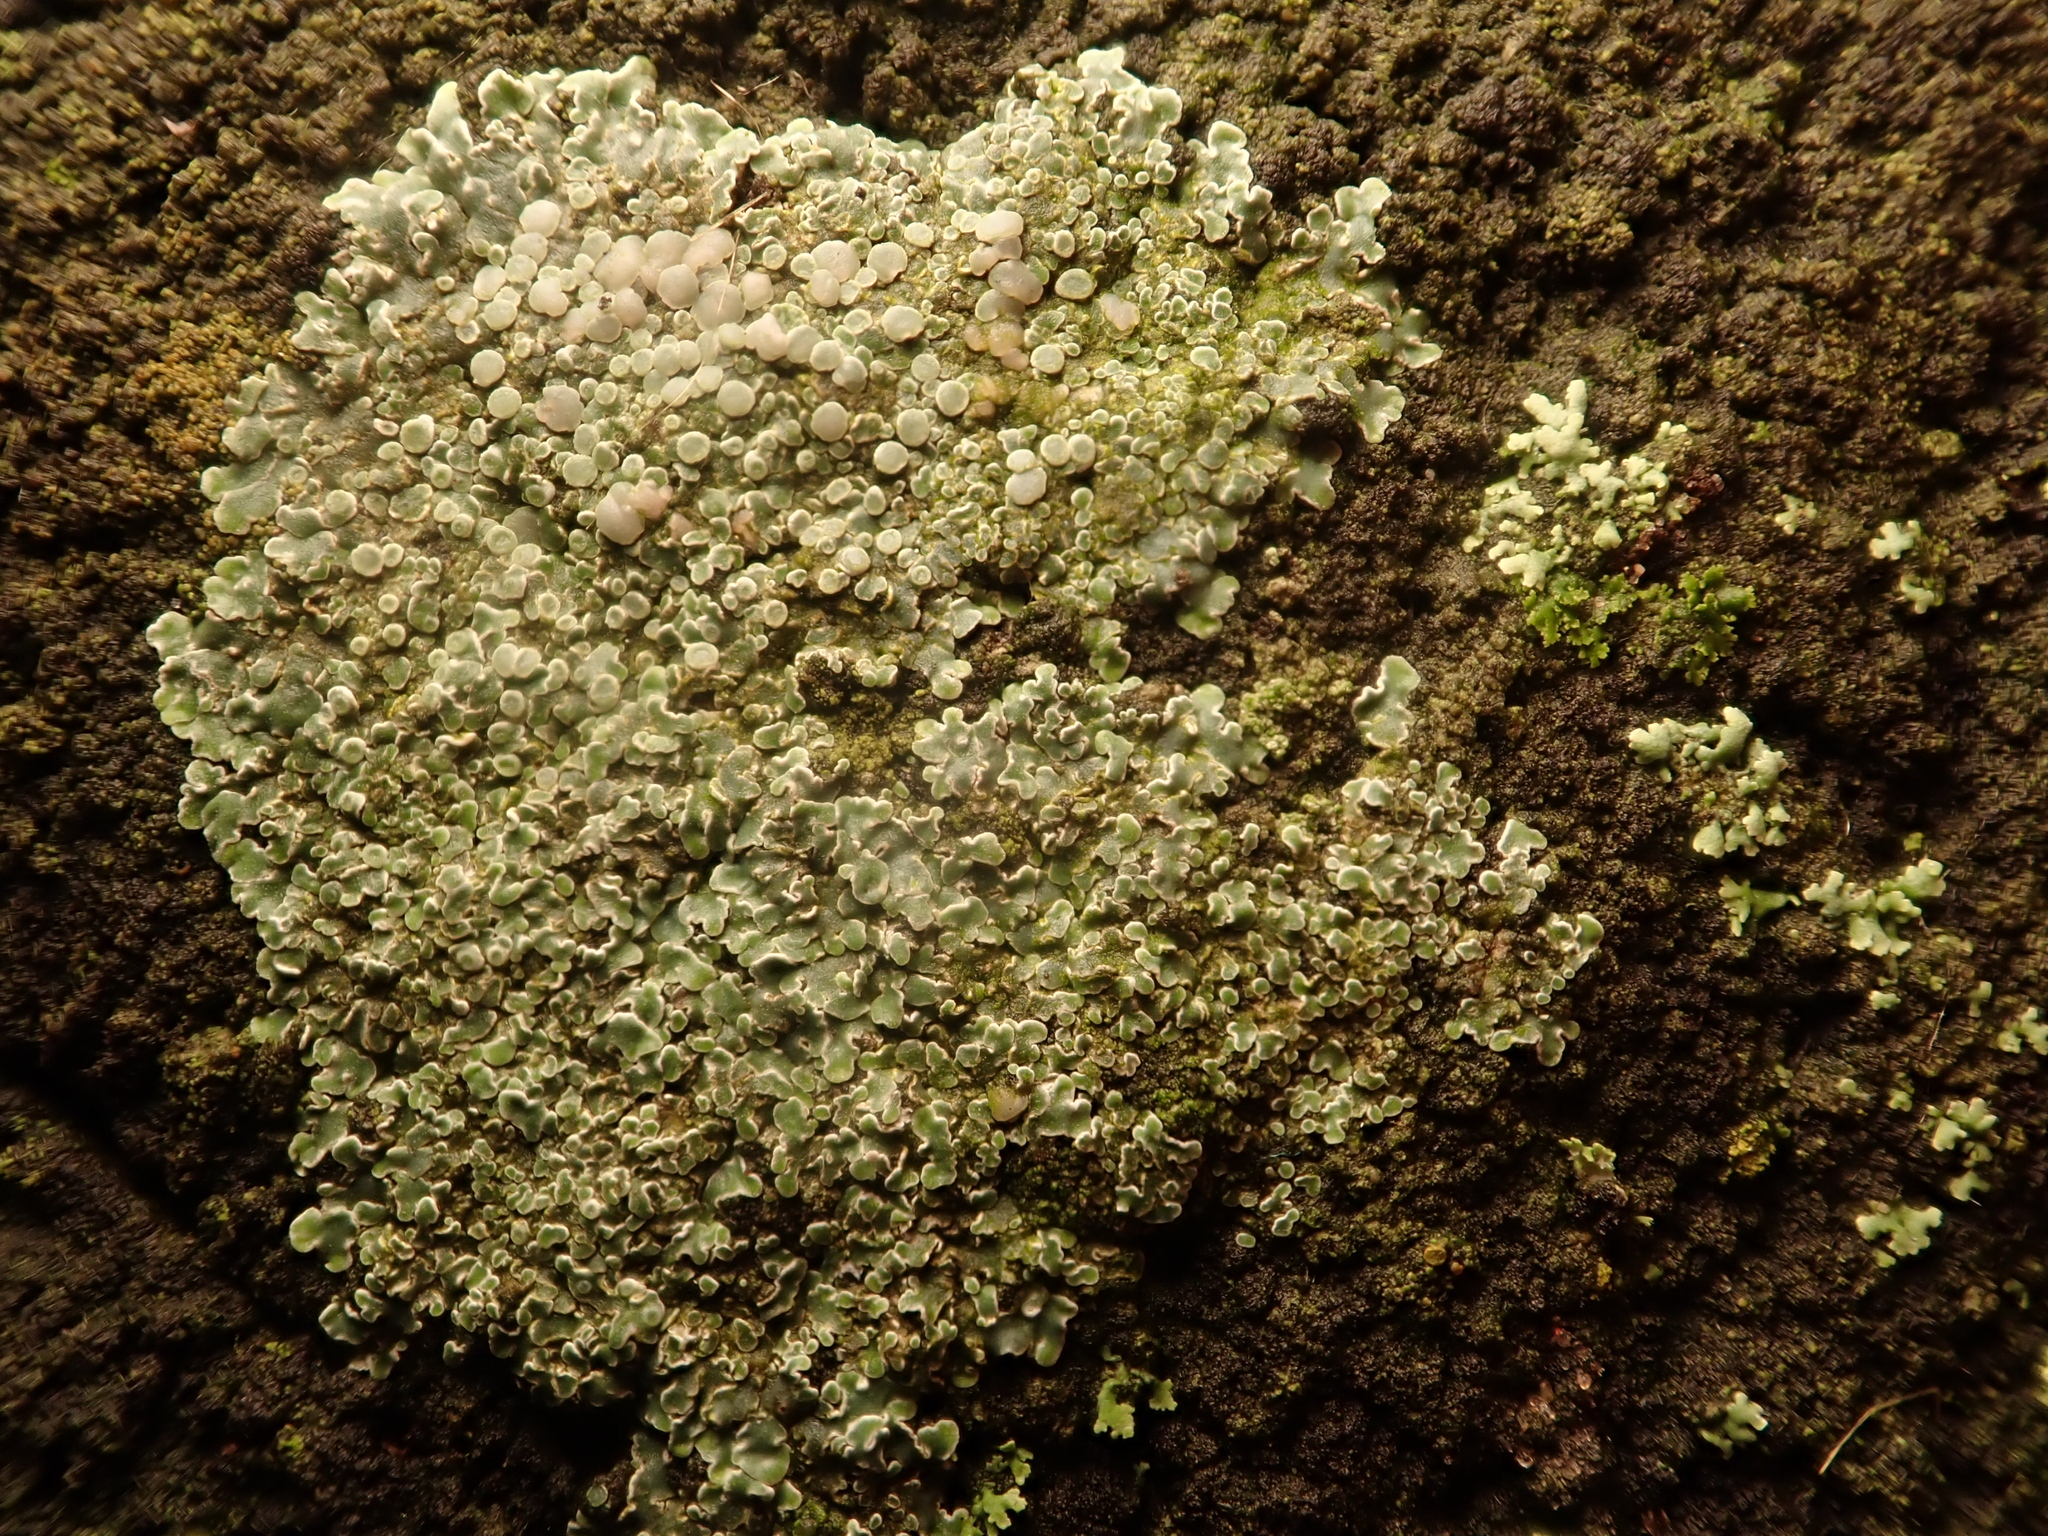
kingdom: Fungi
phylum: Ascomycota
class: Lecanoromycetes
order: Lecanorales
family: Lecanoraceae
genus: Protoparmeliopsis
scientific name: Protoparmeliopsis muralis
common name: Stonewall rim lichen
